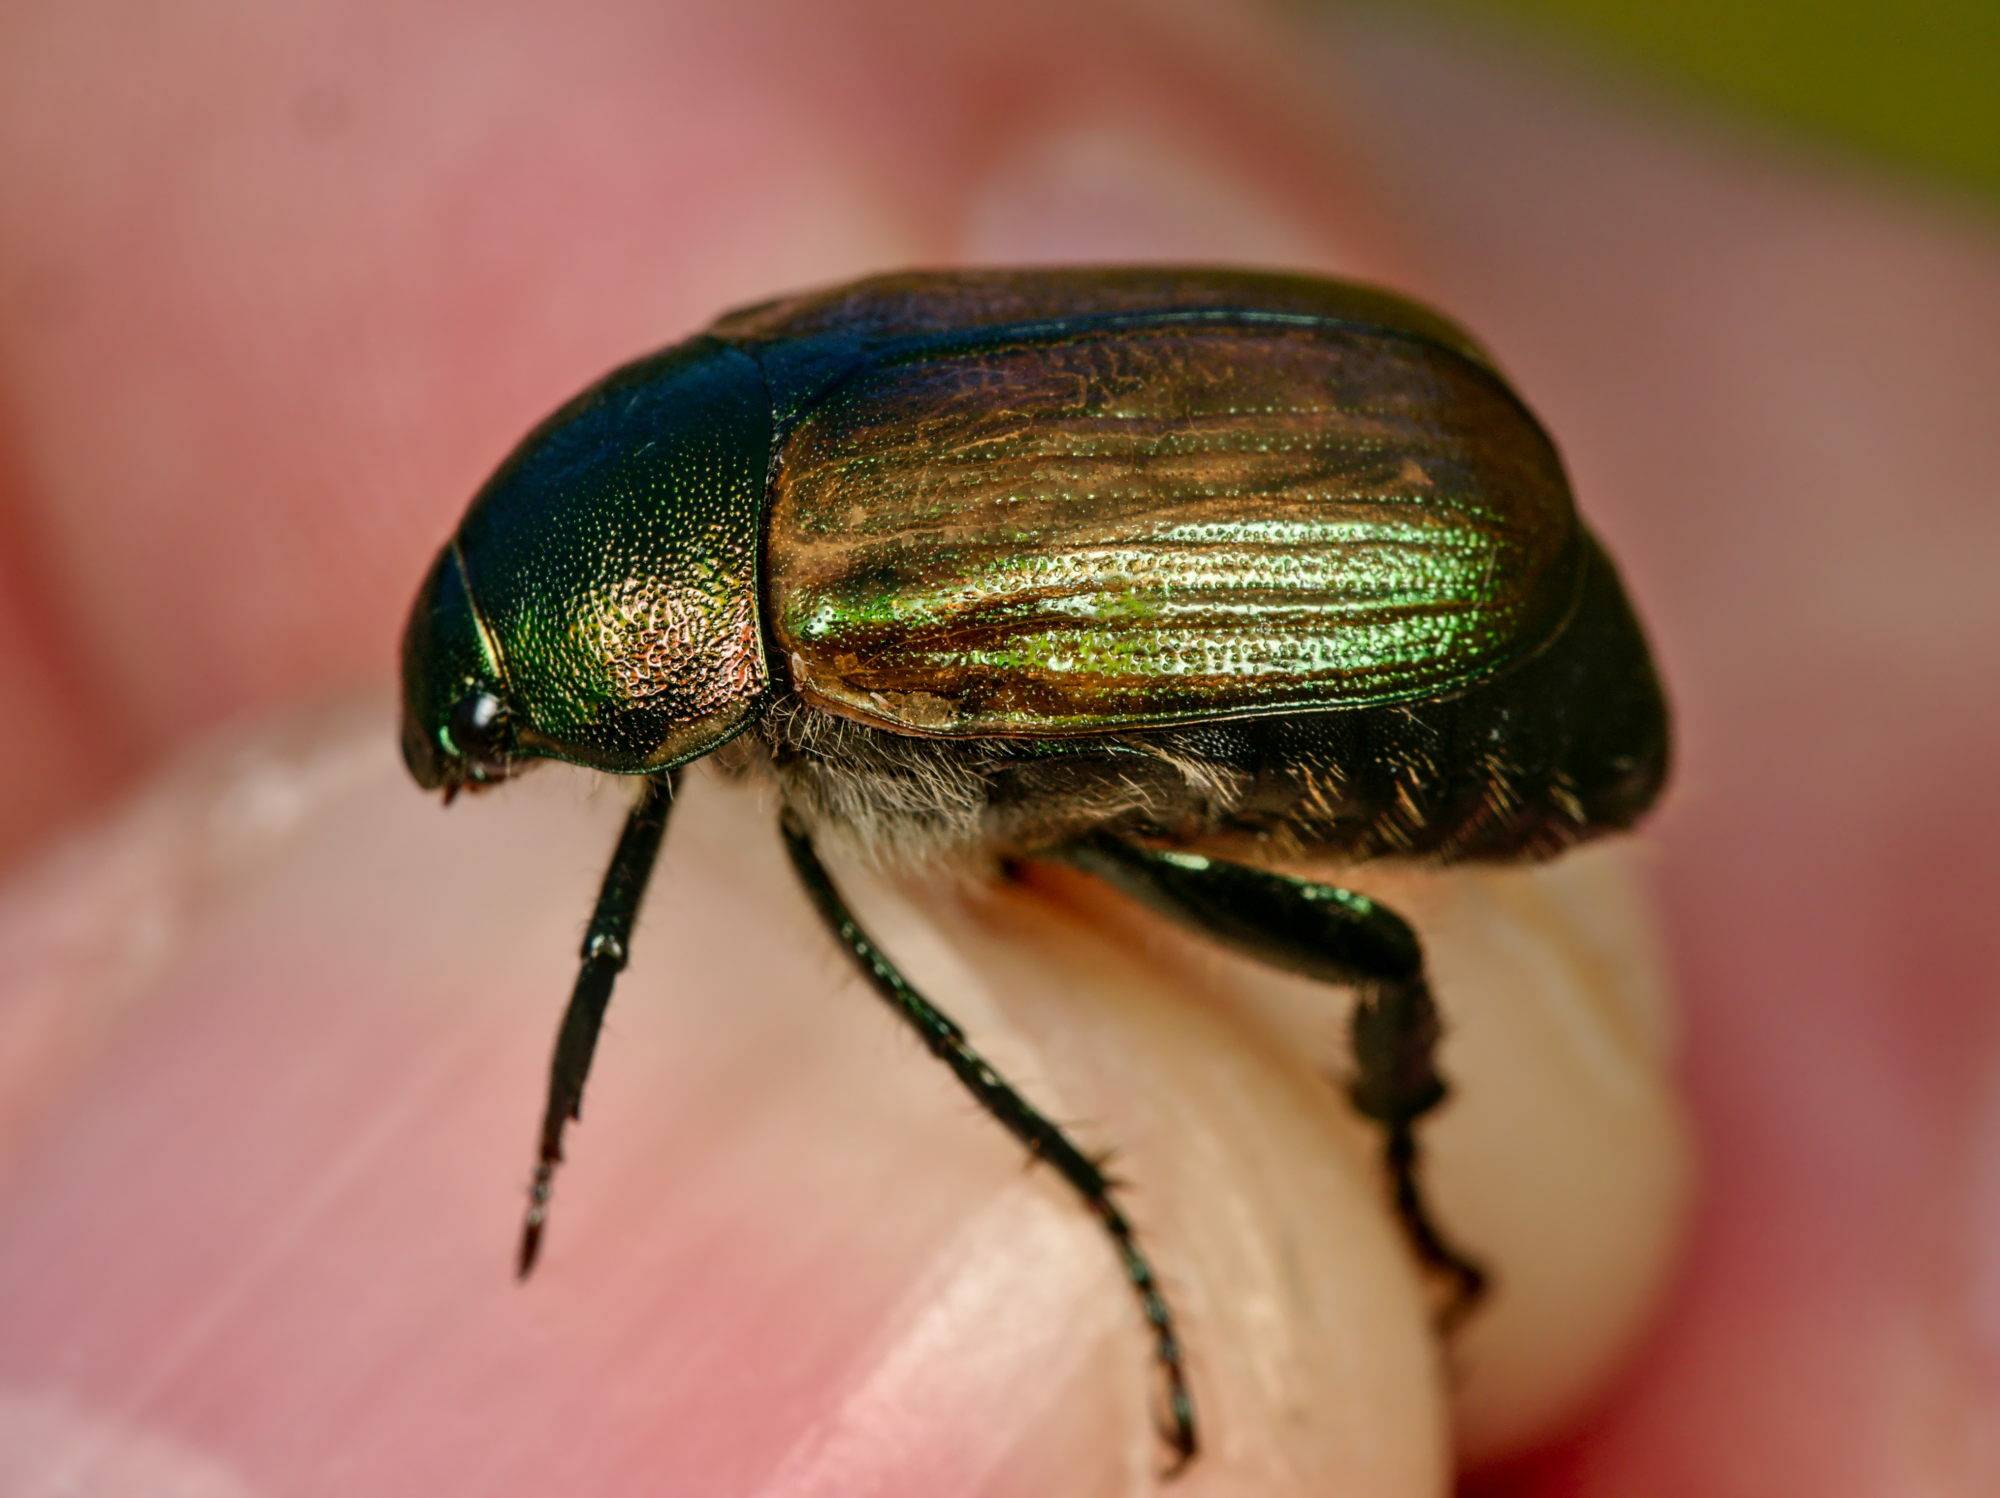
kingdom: Animalia
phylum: Arthropoda
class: Insecta
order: Coleoptera
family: Scarabaeidae
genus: Anomala
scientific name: Anomala dubia
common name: Dune chafer
